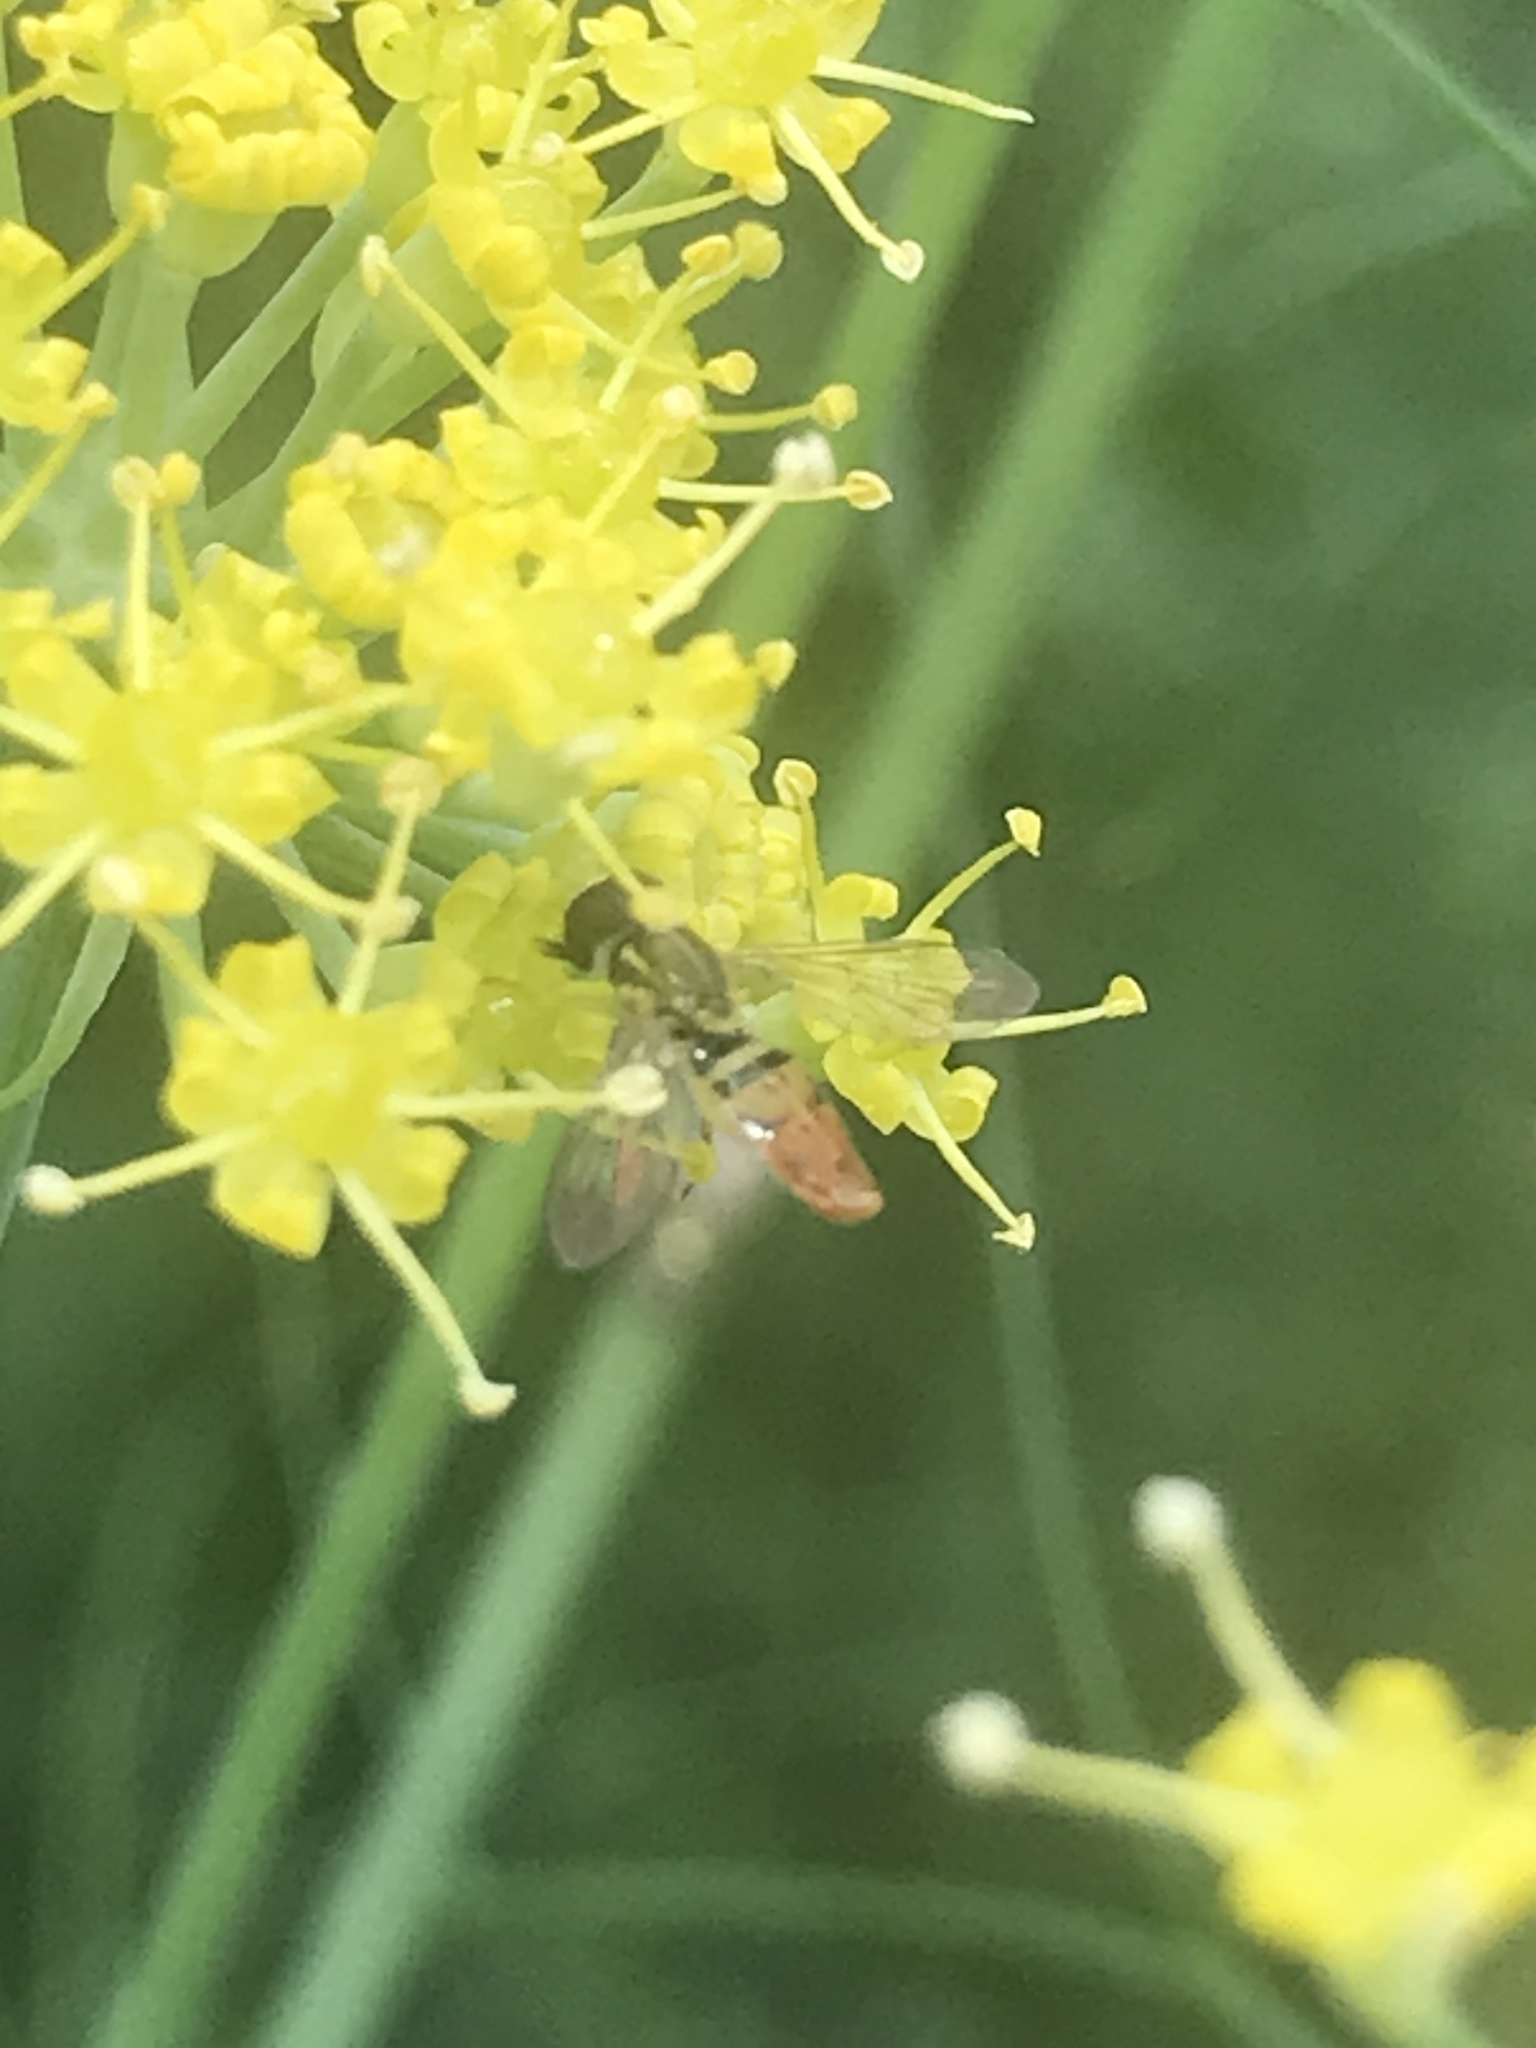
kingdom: Animalia
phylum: Arthropoda
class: Insecta
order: Diptera
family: Syrphidae
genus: Toxomerus
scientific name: Toxomerus marginatus
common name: Syrphid fly
